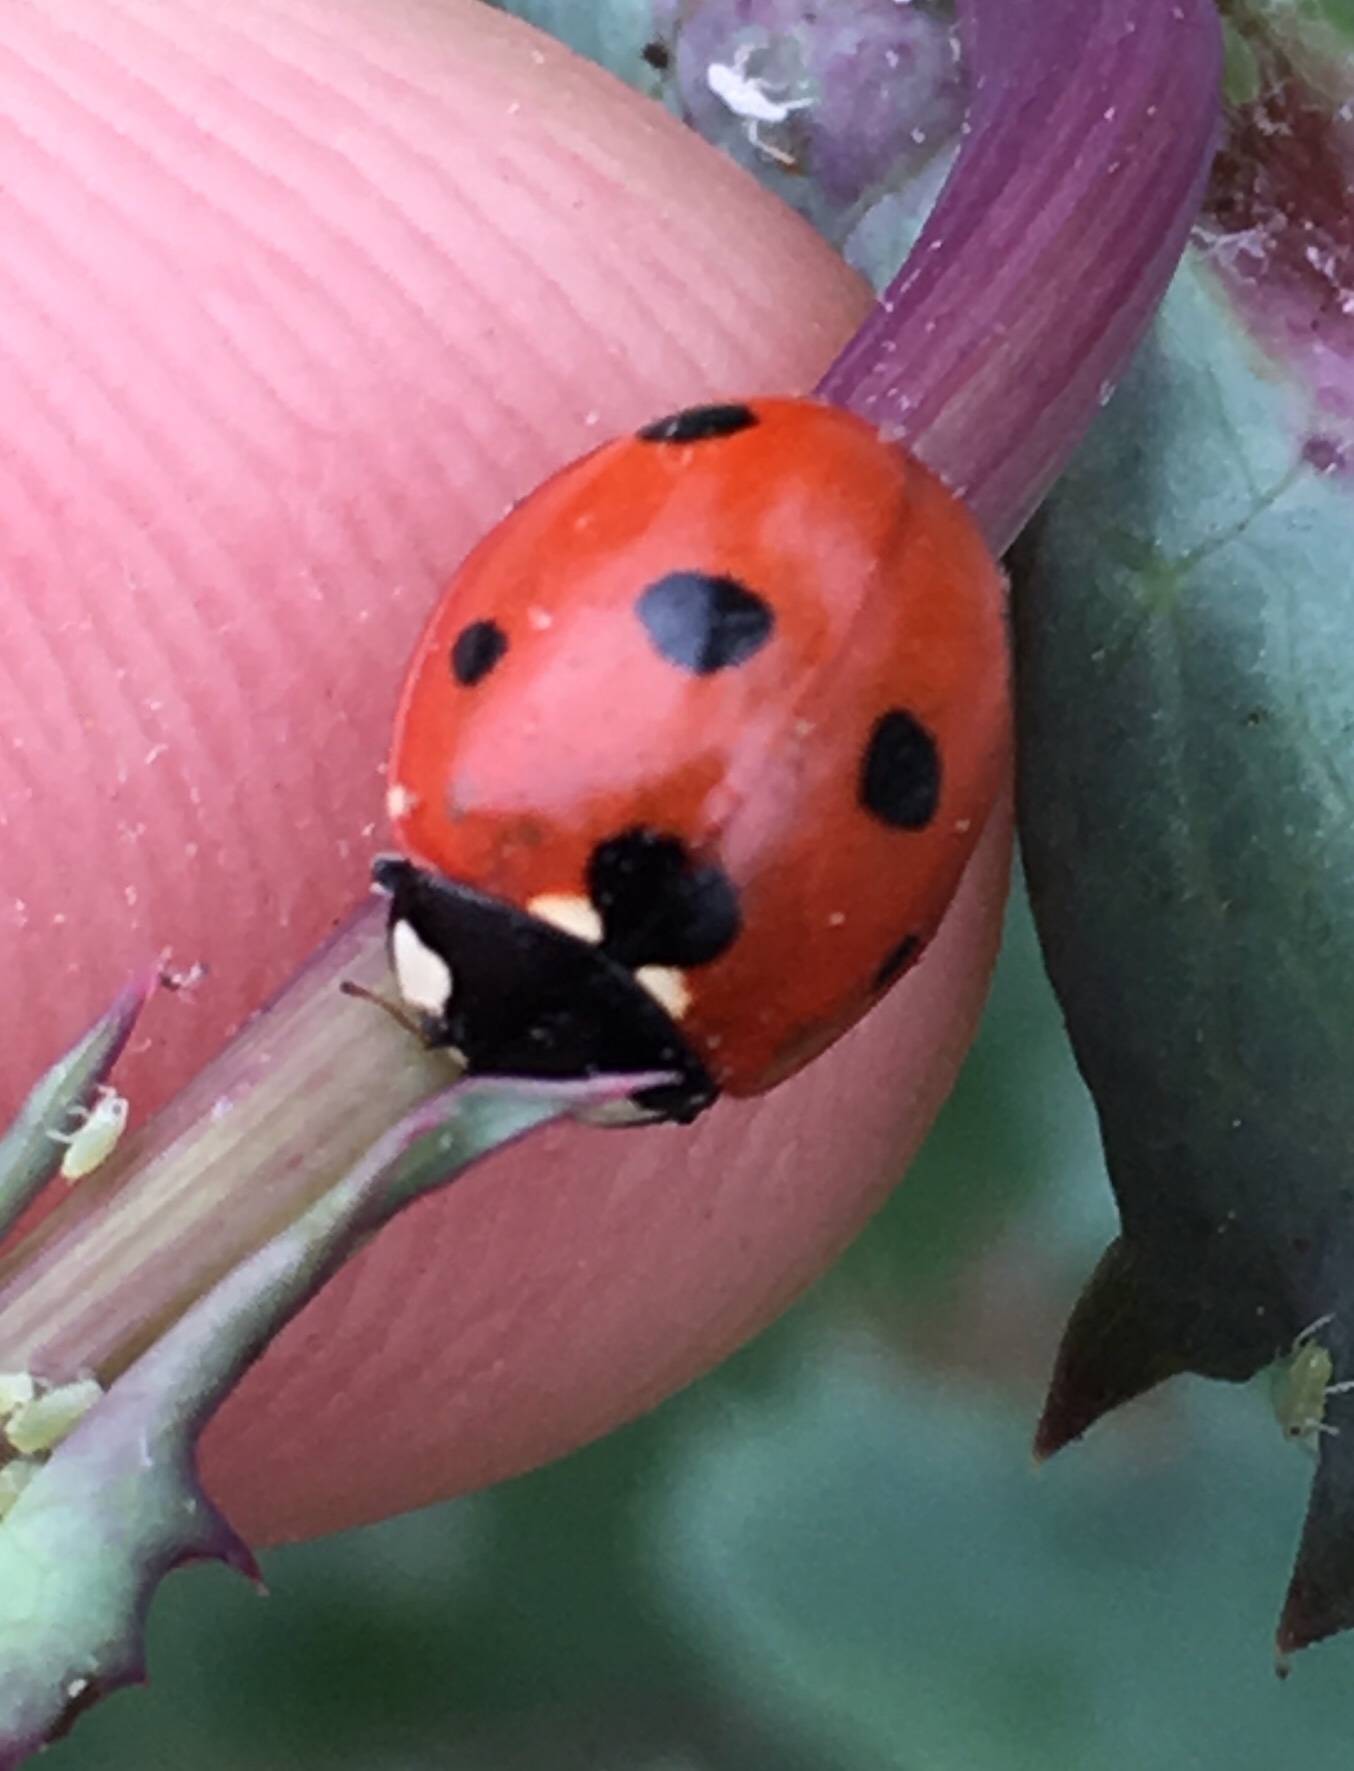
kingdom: Animalia
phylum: Arthropoda
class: Insecta
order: Coleoptera
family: Coccinellidae
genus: Coccinella
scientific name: Coccinella septempunctata
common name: Sevenspotted lady beetle
